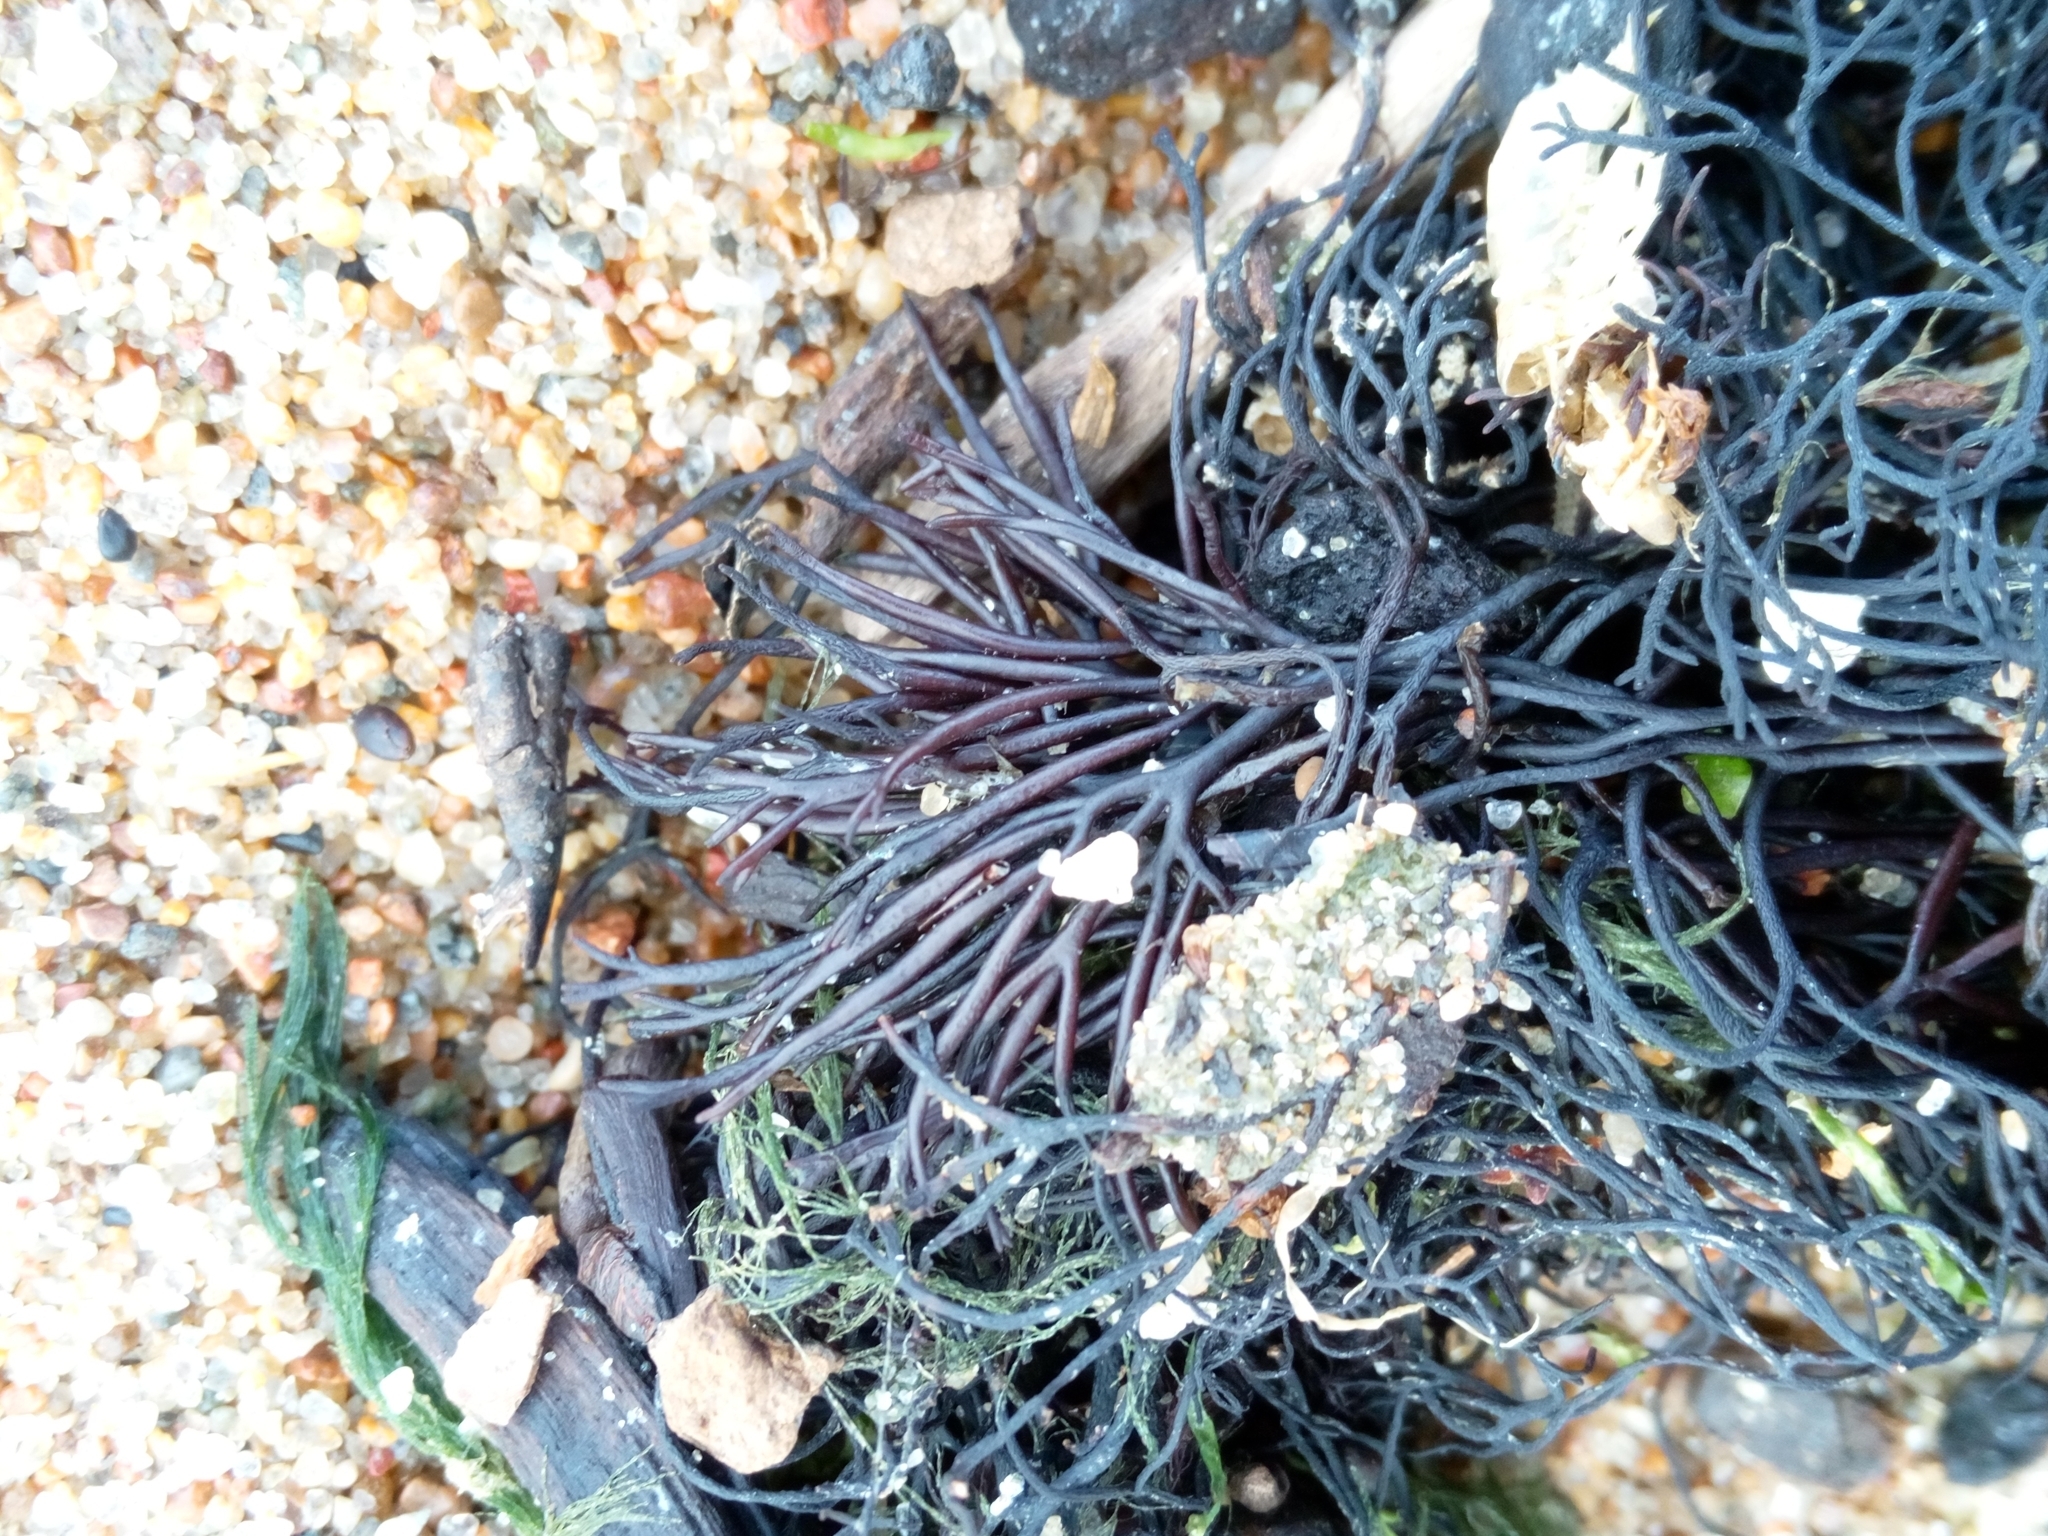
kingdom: Plantae
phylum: Rhodophyta
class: Florideophyceae
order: Gigartinales
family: Furcellariaceae
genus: Furcellaria
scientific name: Furcellaria lumbricalis
